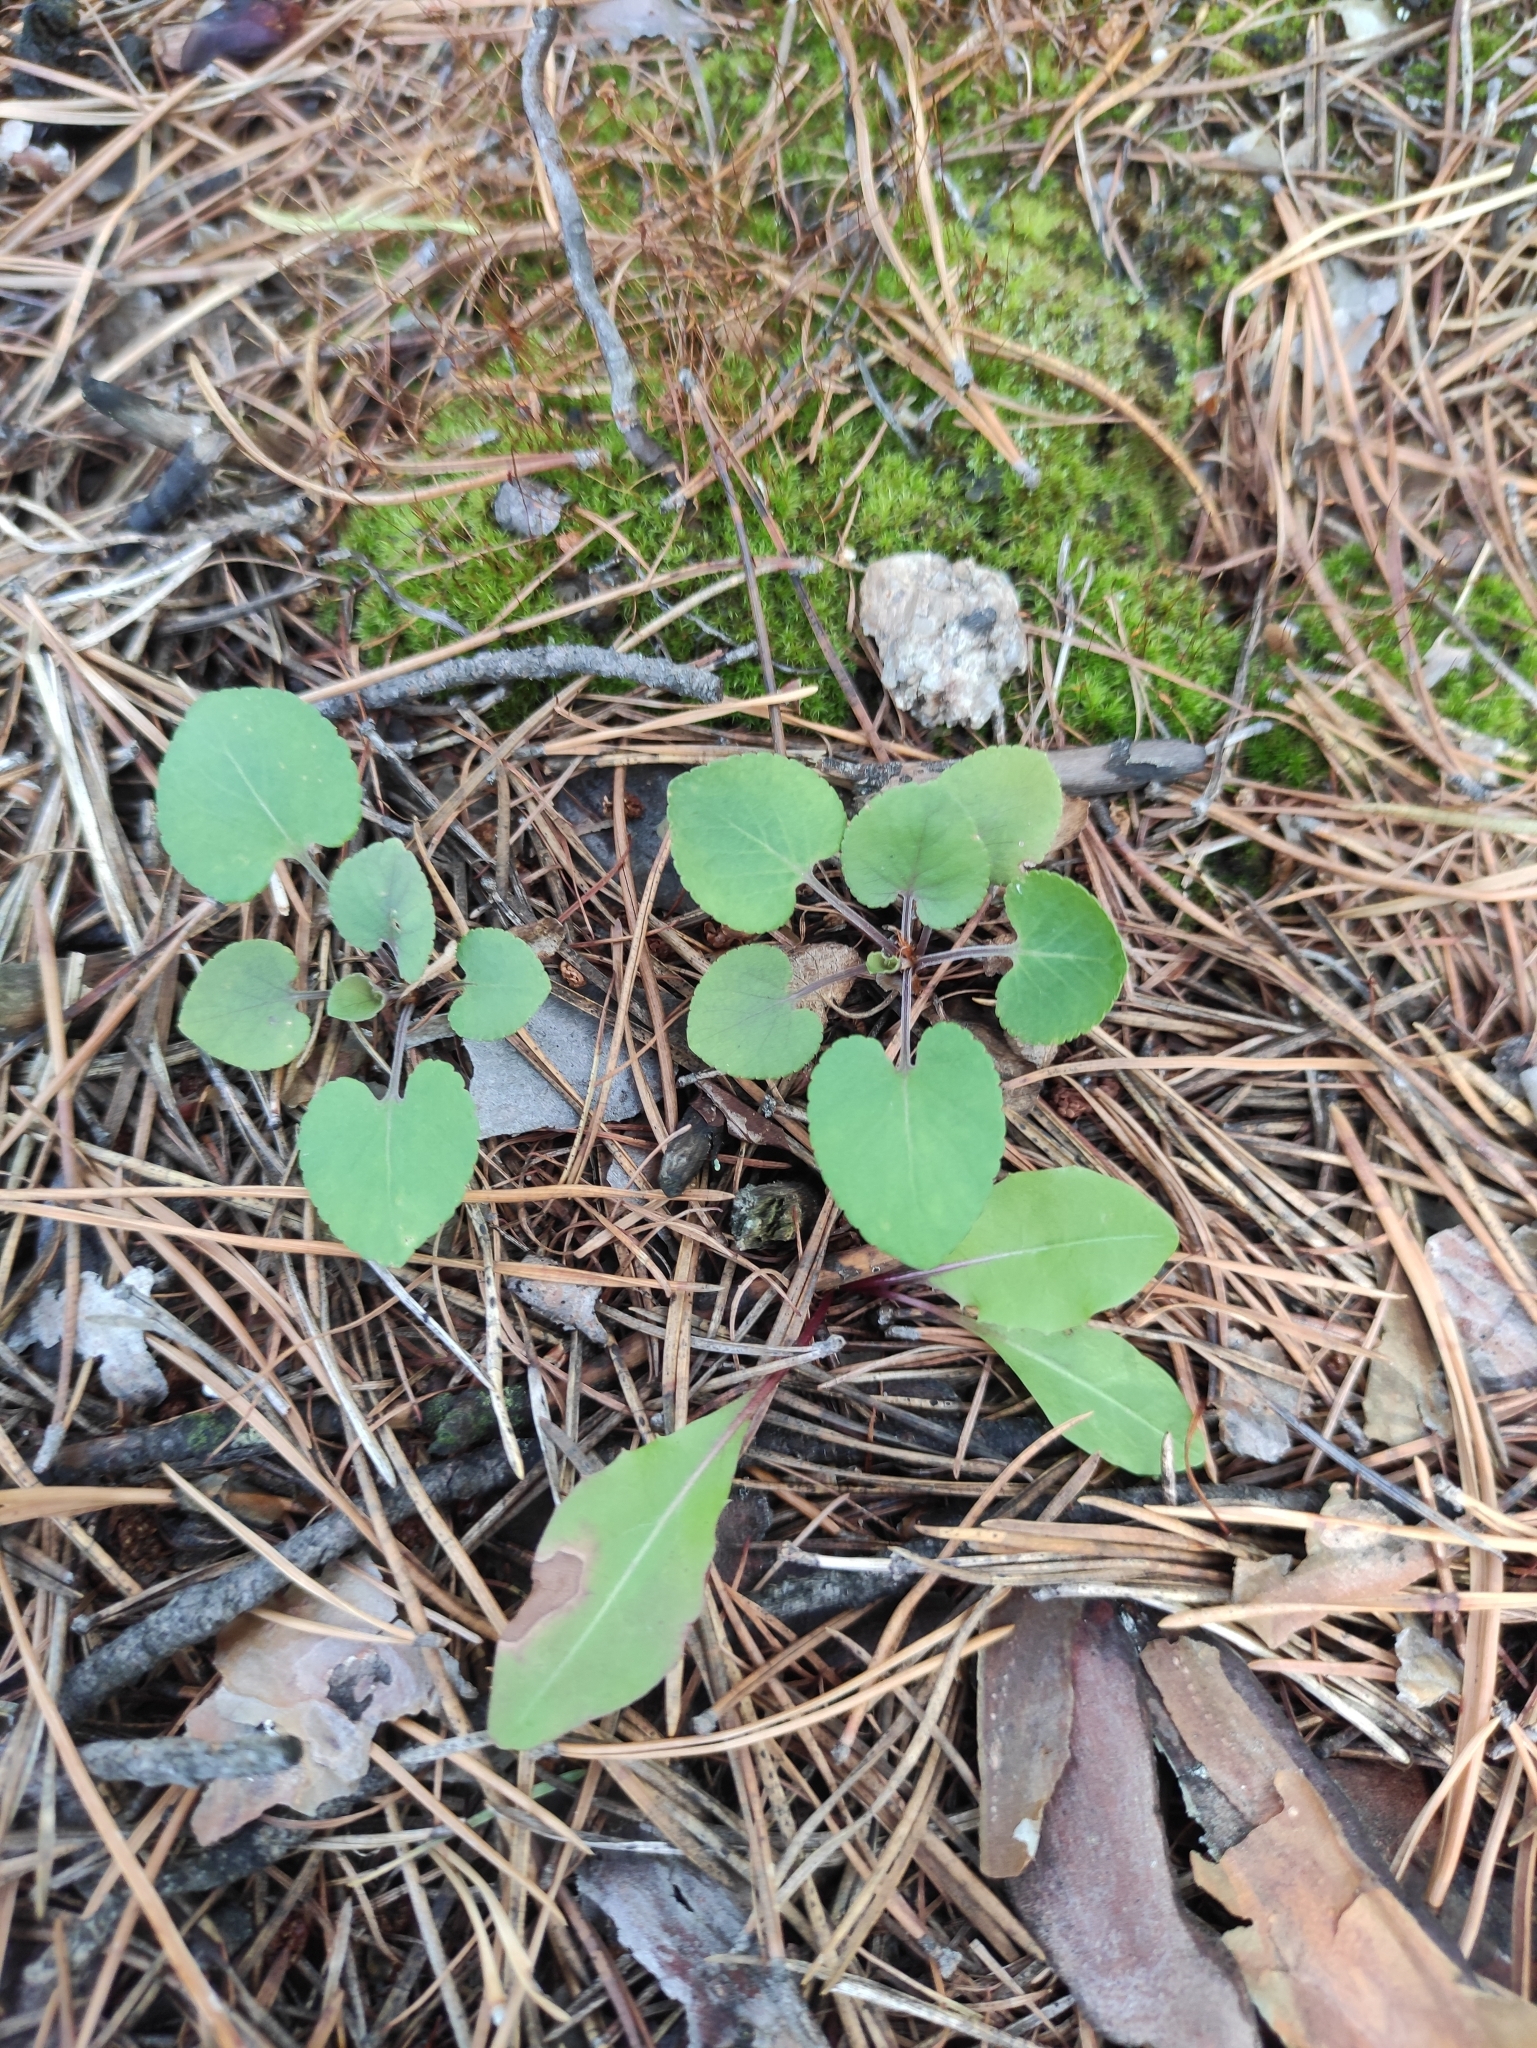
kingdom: Plantae
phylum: Tracheophyta
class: Magnoliopsida
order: Malpighiales
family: Violaceae
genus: Viola
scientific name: Viola rupestris
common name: Teesdale violet
